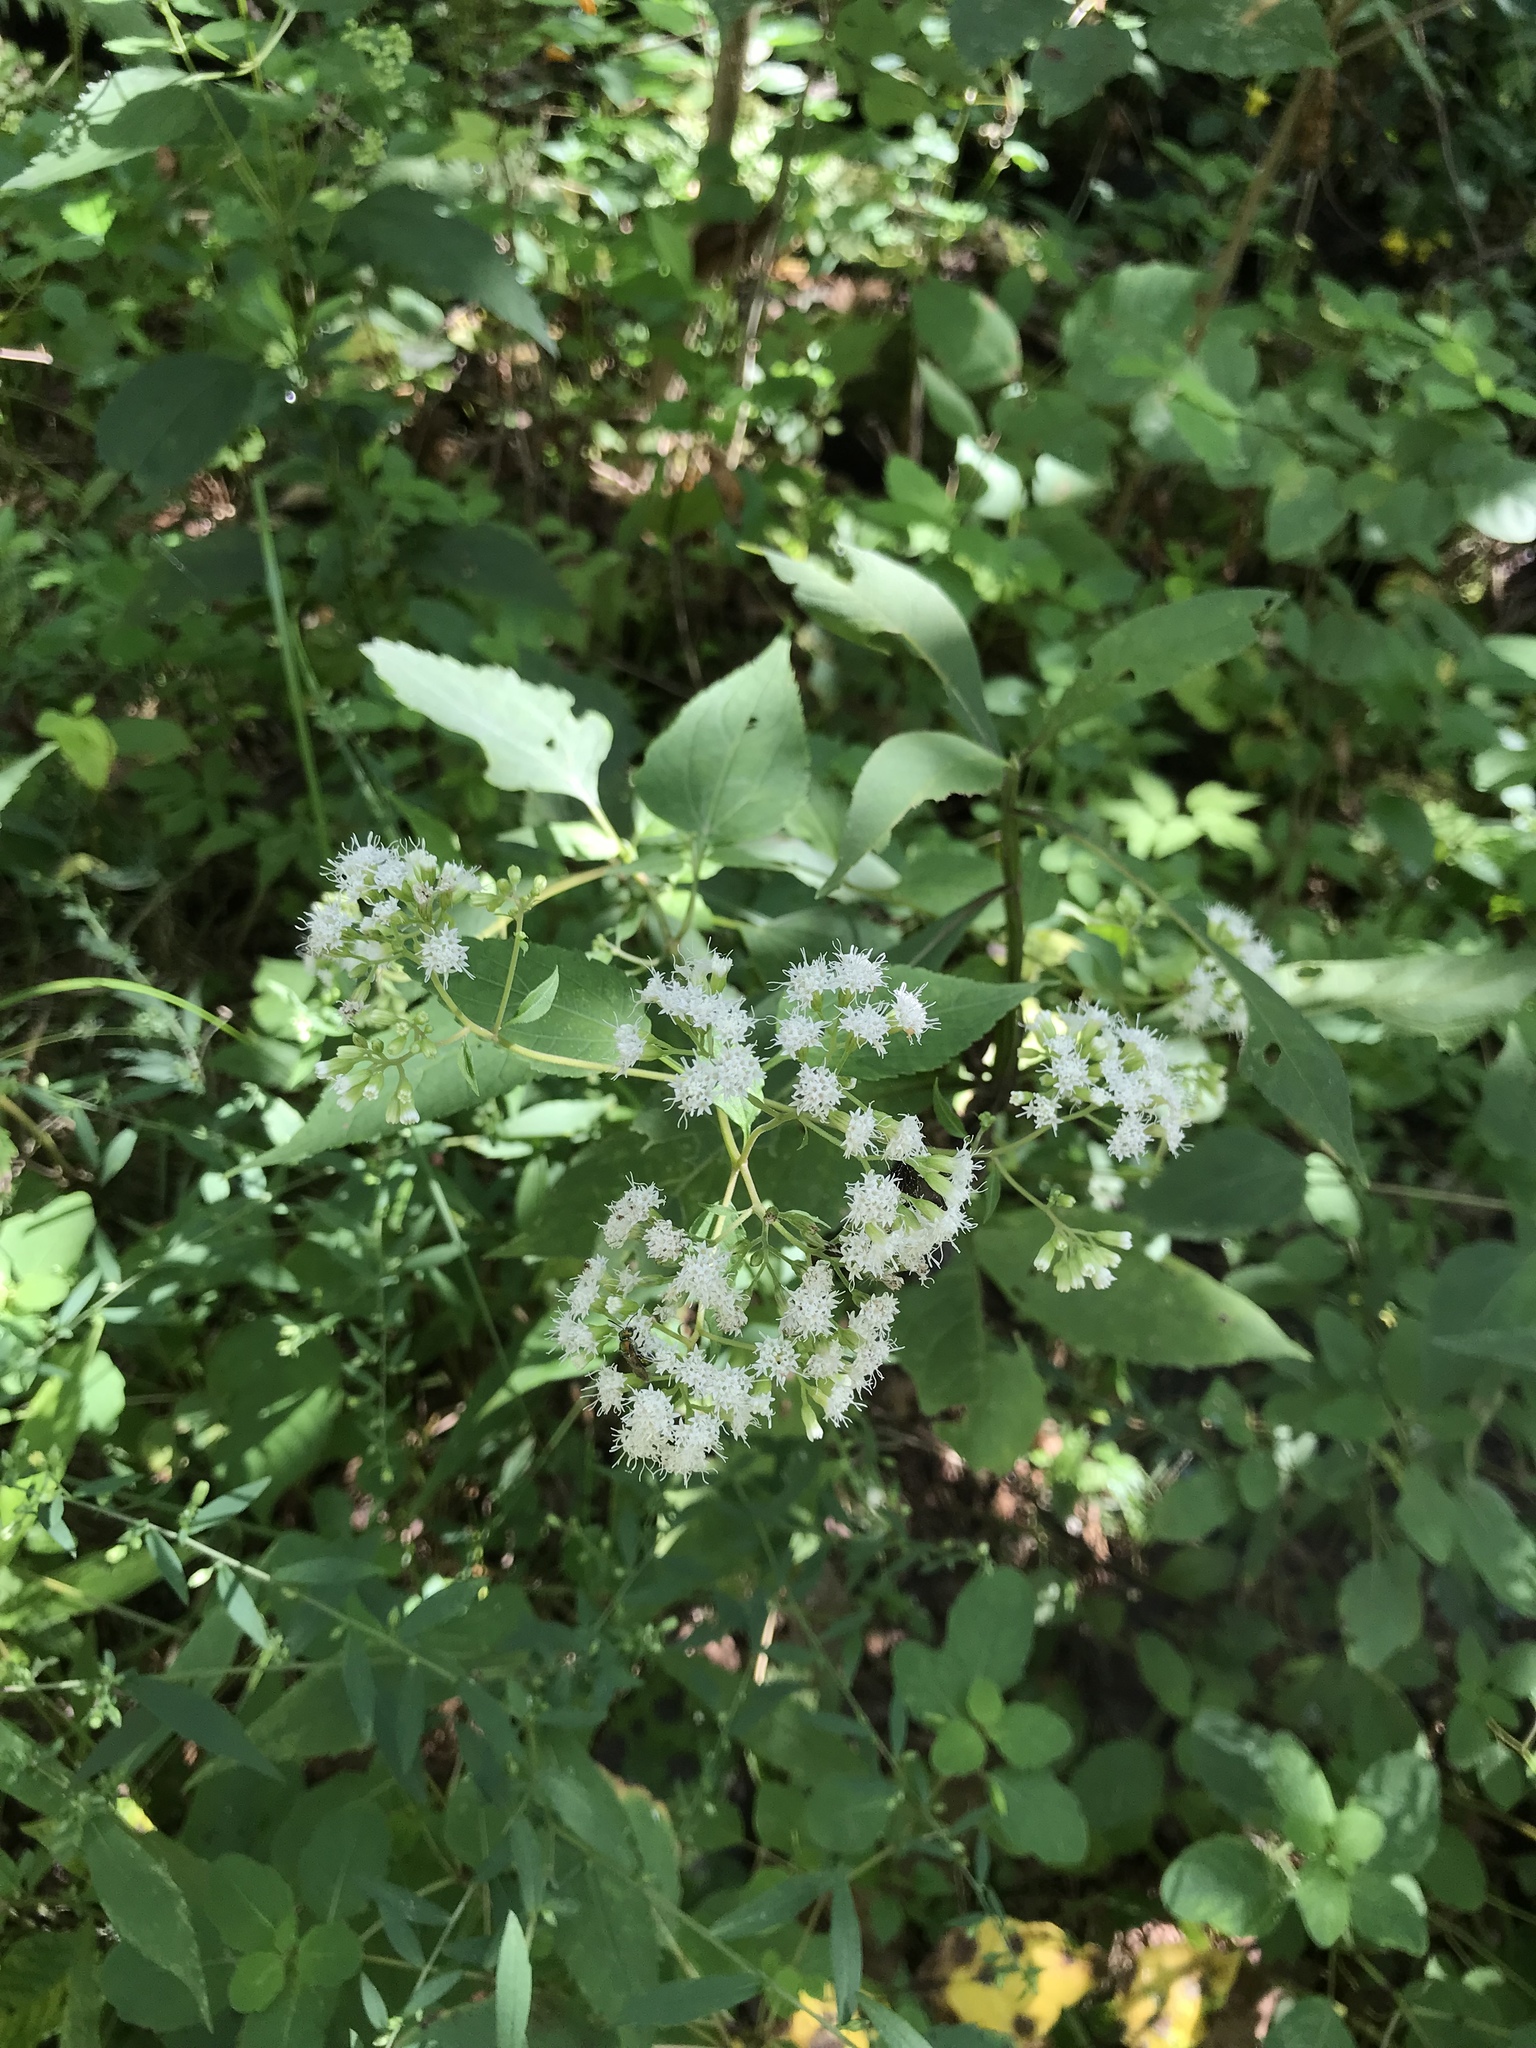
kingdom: Plantae
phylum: Tracheophyta
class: Magnoliopsida
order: Asterales
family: Asteraceae
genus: Ageratina
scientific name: Ageratina altissima
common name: White snakeroot
